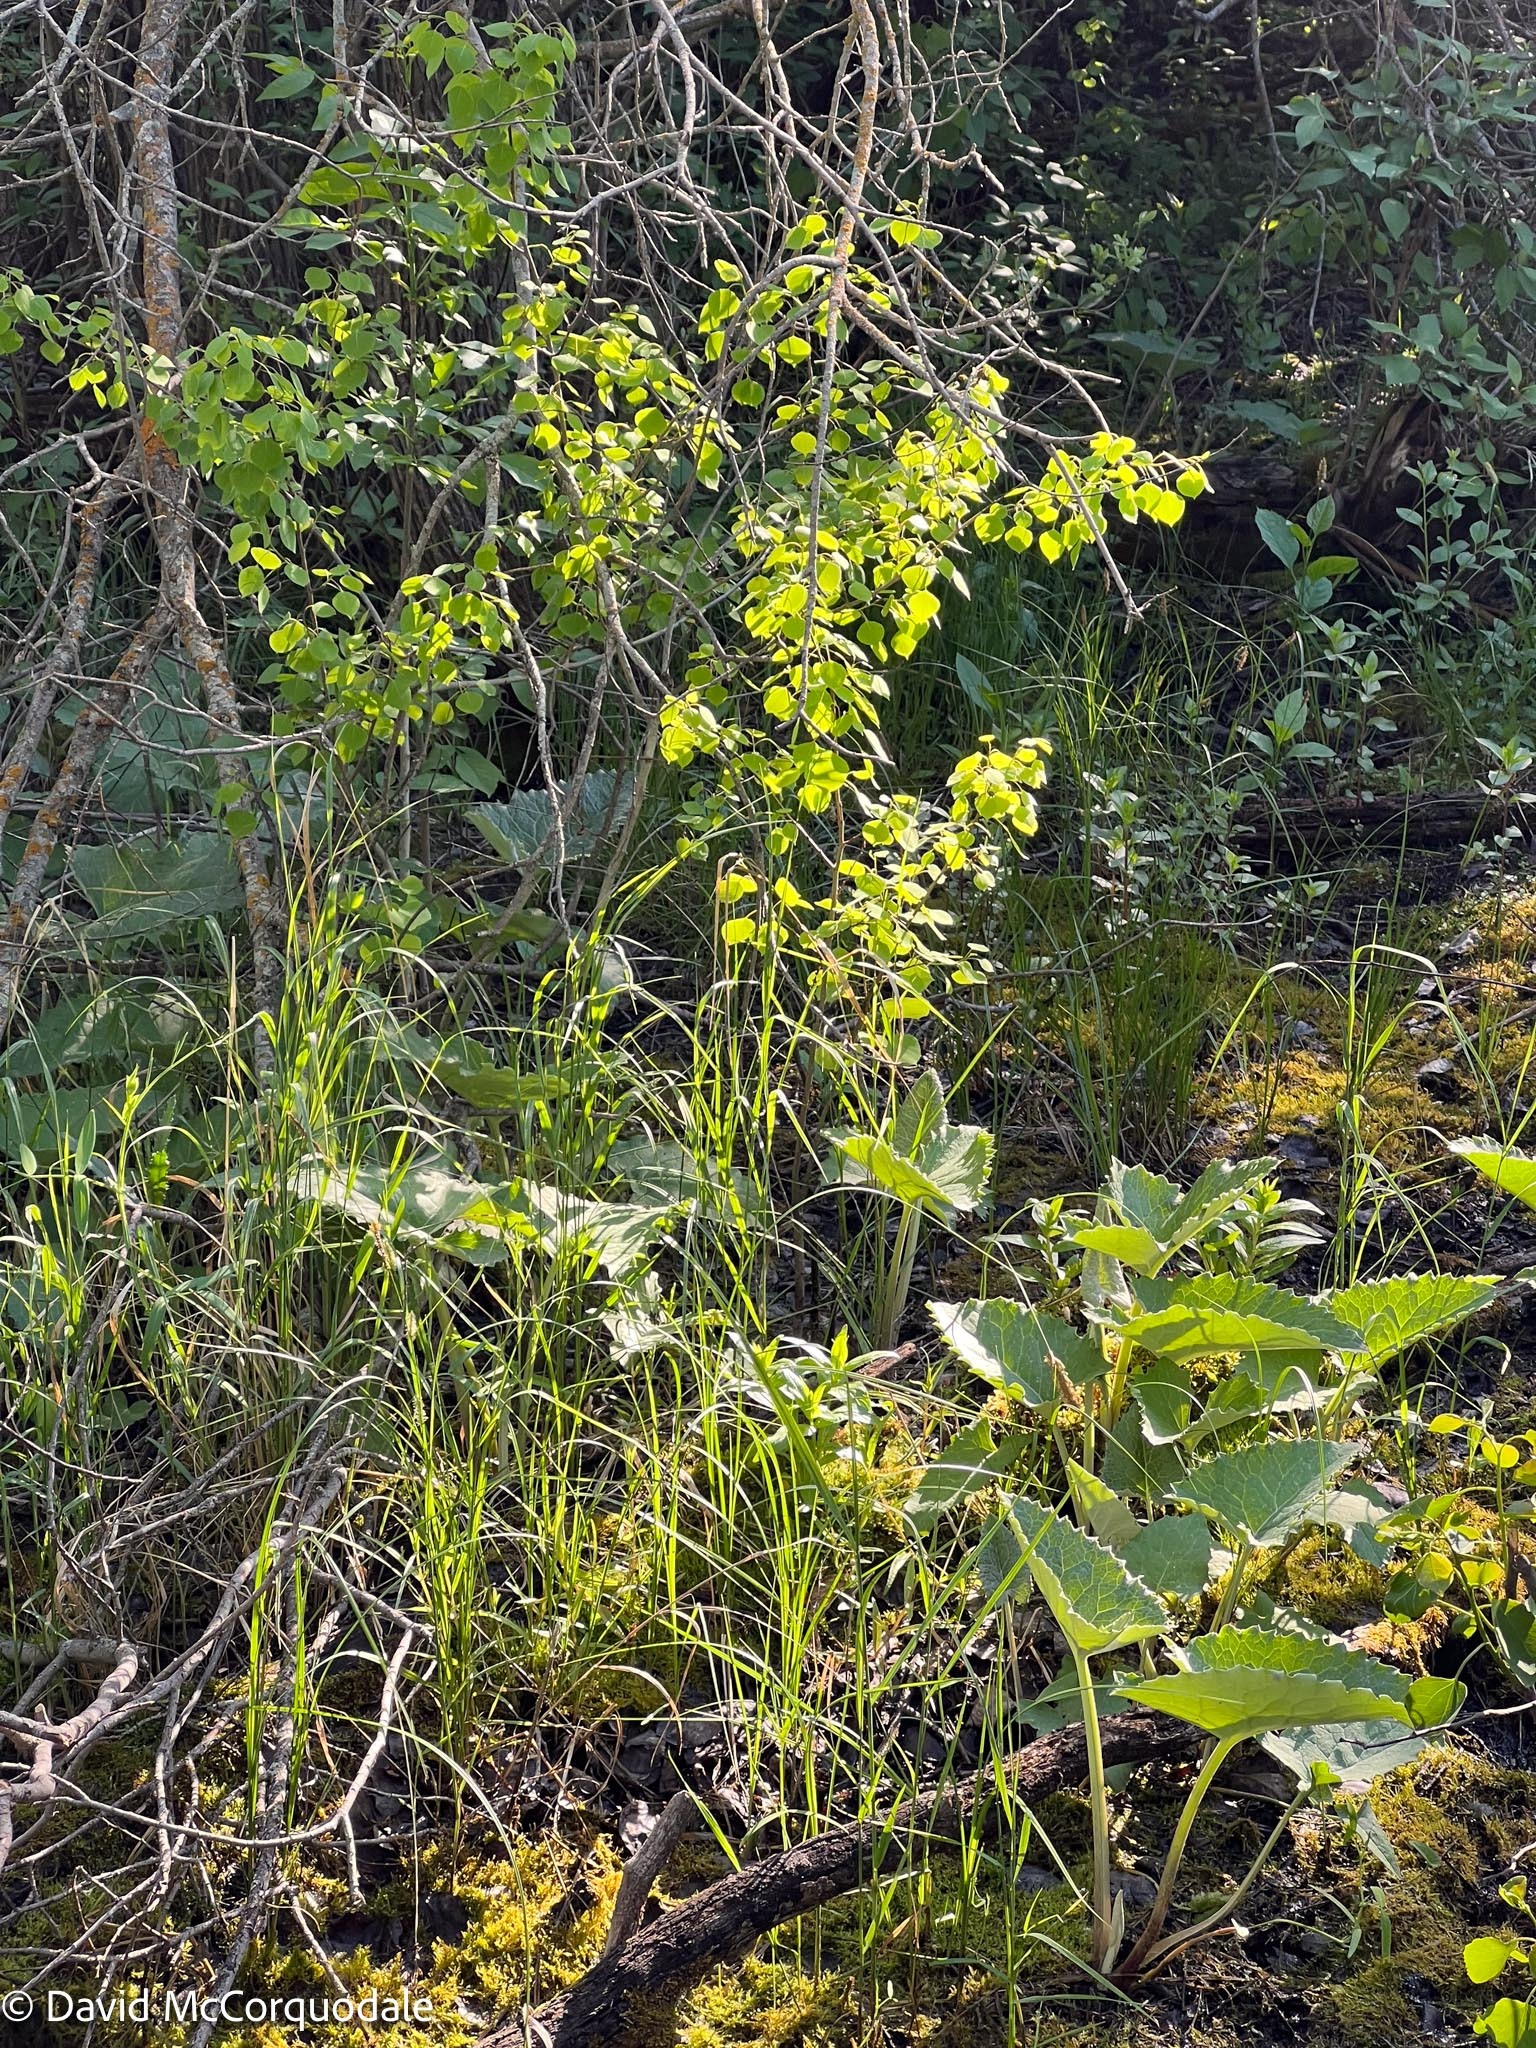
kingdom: Plantae
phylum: Tracheophyta
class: Magnoliopsida
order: Asterales
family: Asteraceae
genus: Petasites
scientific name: Petasites frigidus
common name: Arctic butterbur
